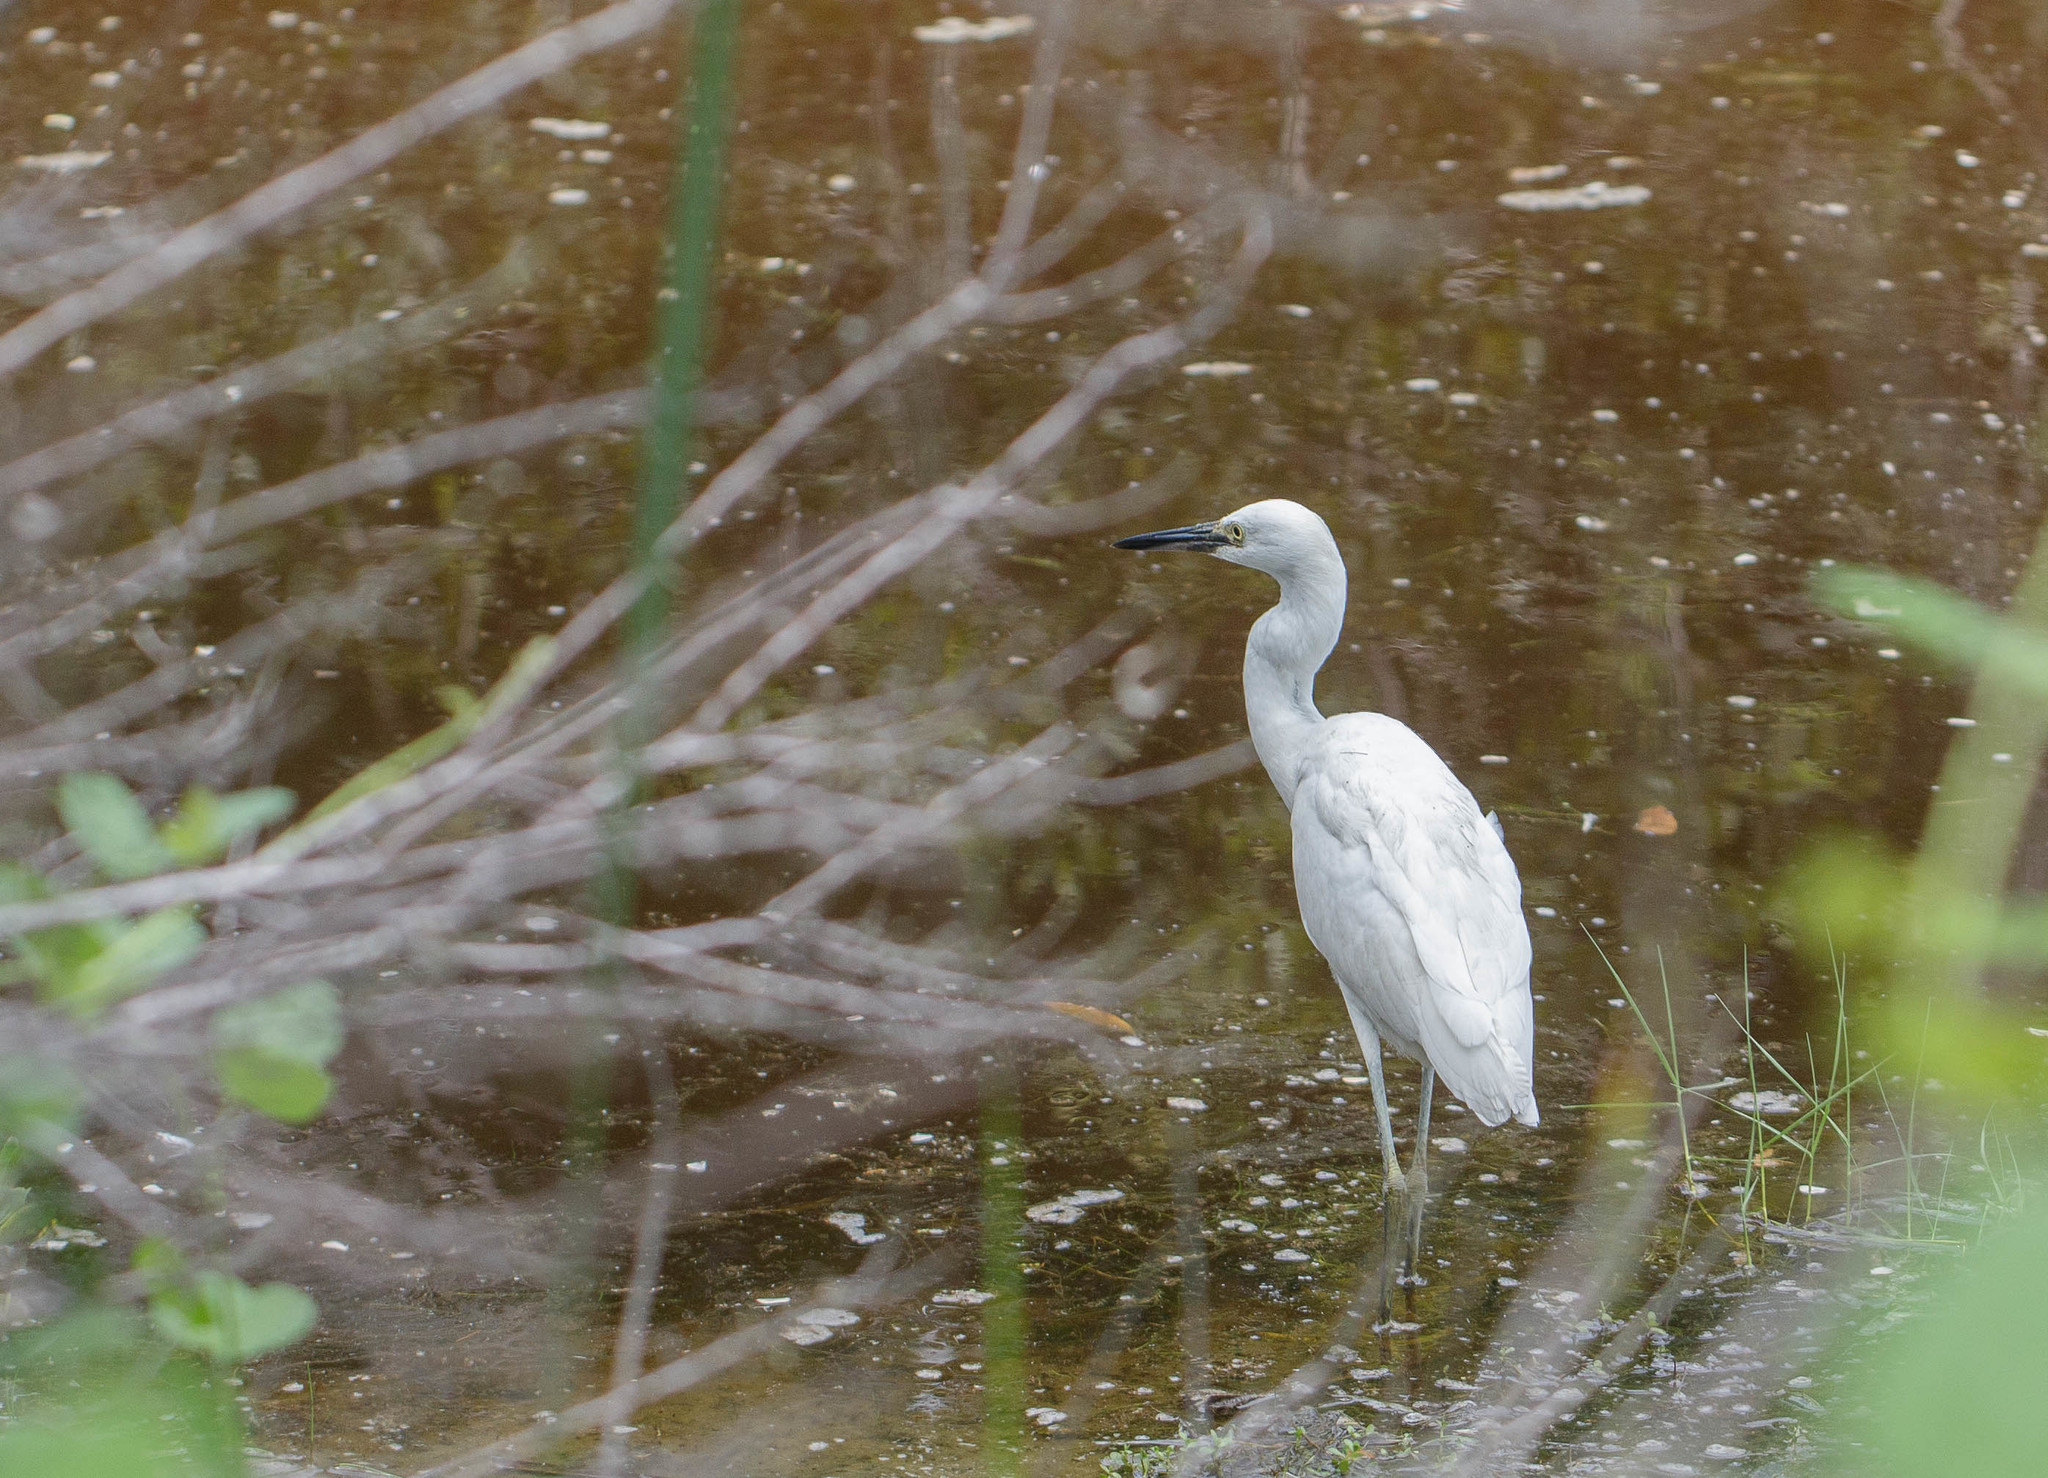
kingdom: Animalia
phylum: Chordata
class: Aves
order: Pelecaniformes
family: Ardeidae
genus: Egretta
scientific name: Egretta caerulea
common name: Little blue heron
